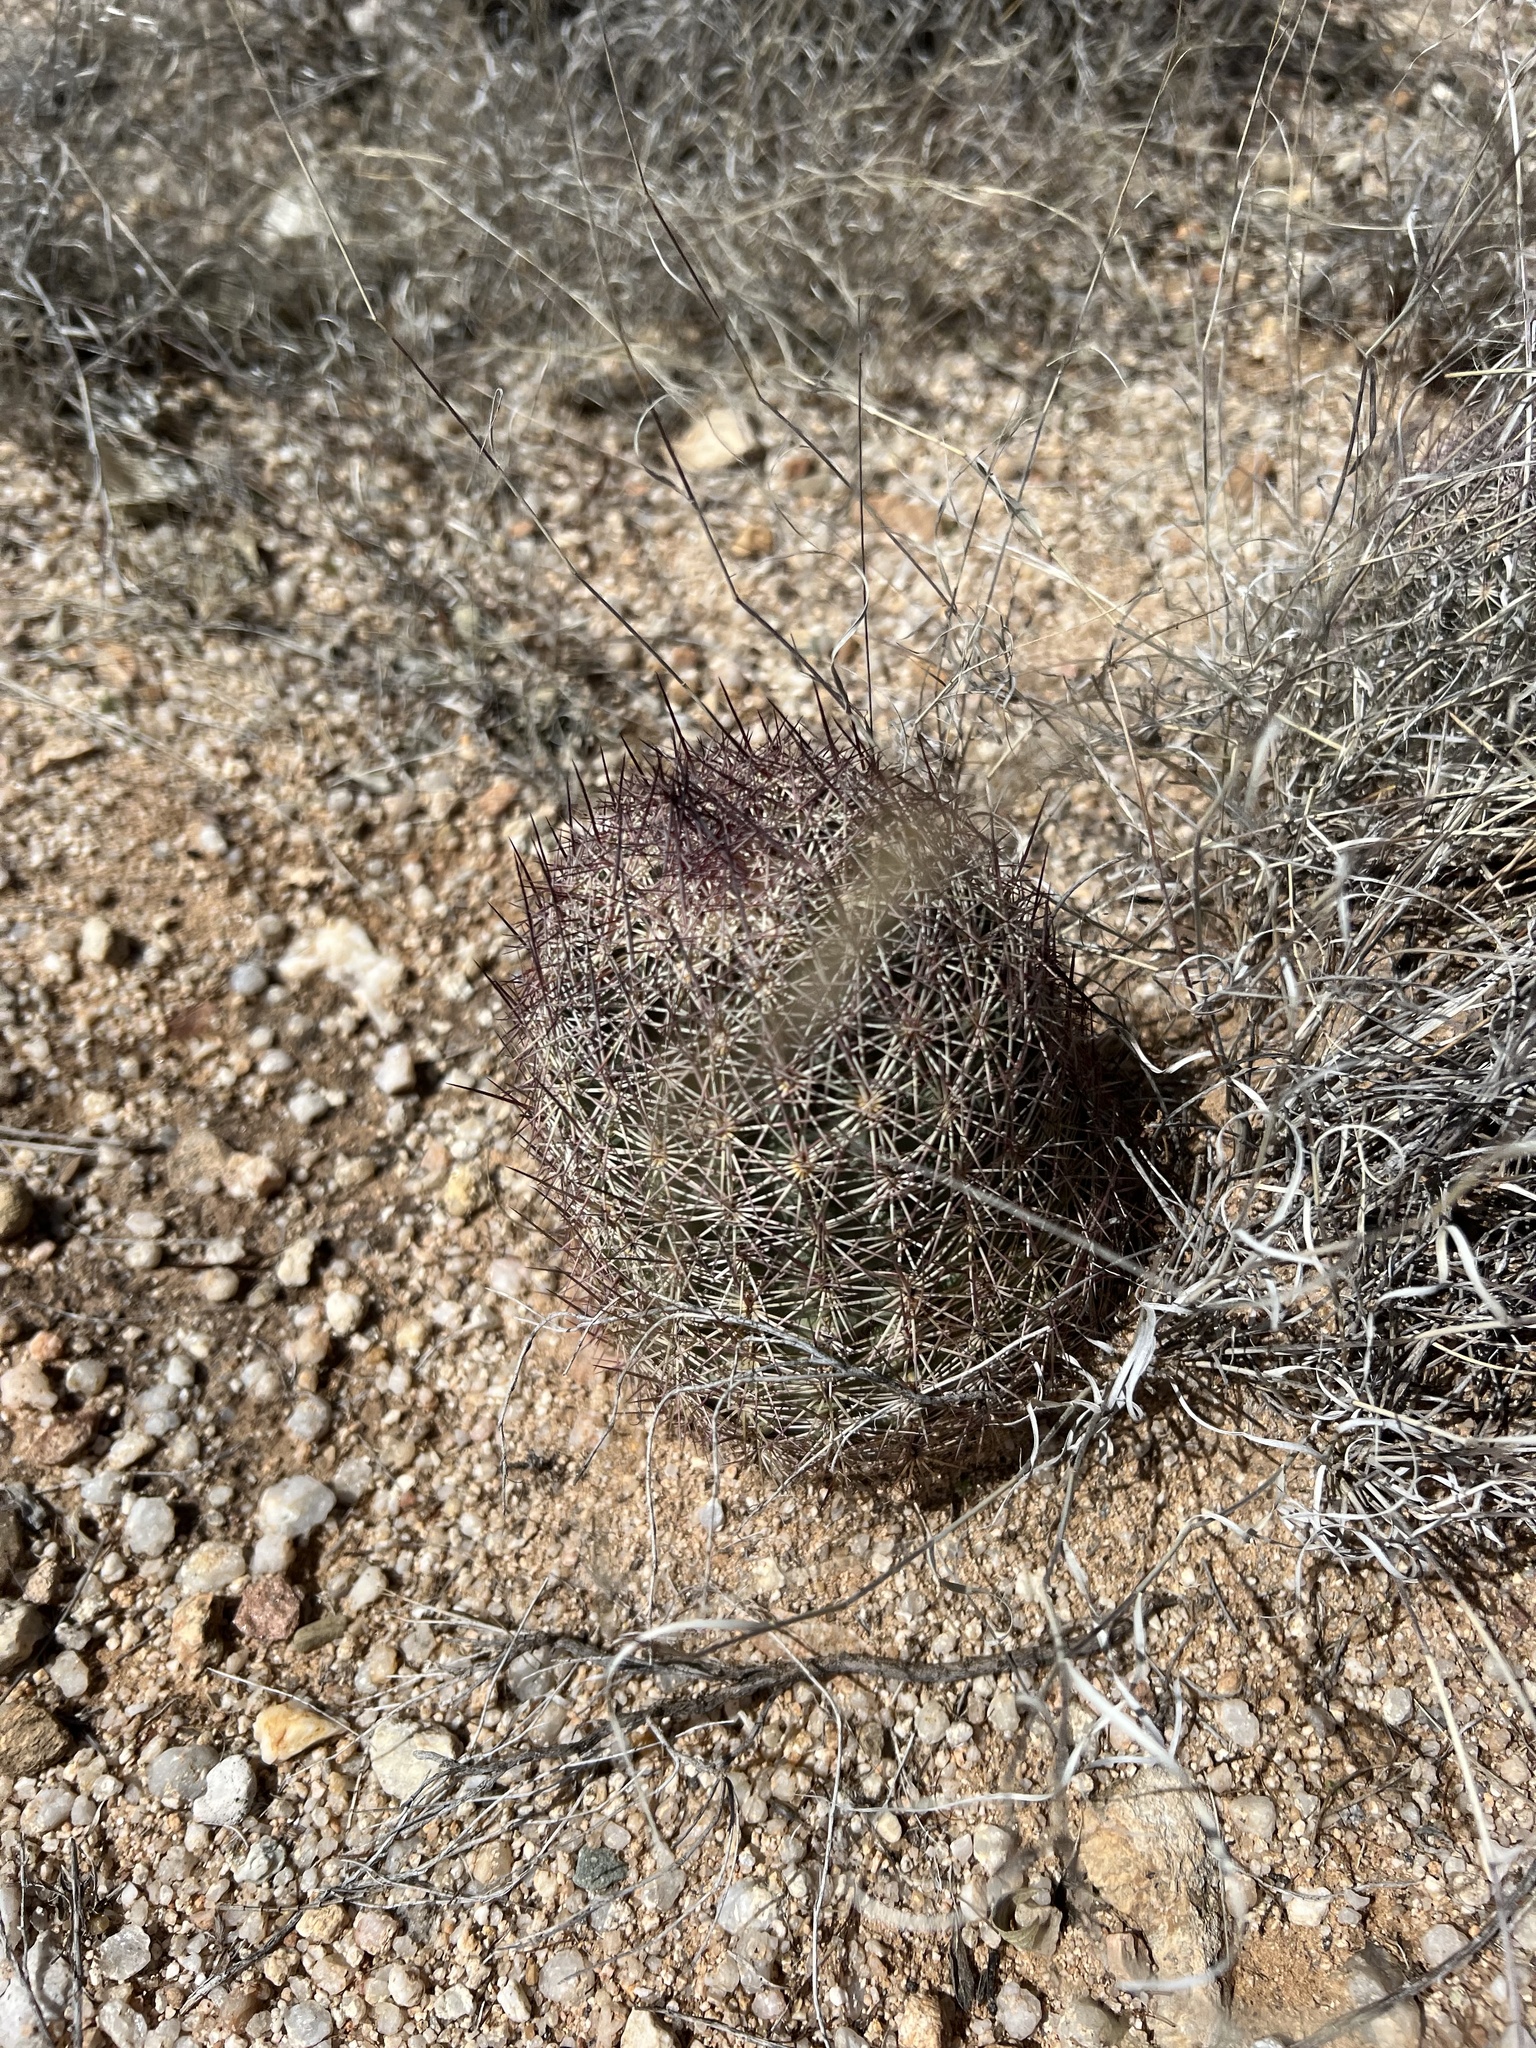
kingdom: Plantae
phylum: Tracheophyta
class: Magnoliopsida
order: Caryophyllales
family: Cactaceae
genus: Sclerocactus
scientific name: Sclerocactus johnsonii
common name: Eight-spine fishhook cactus
